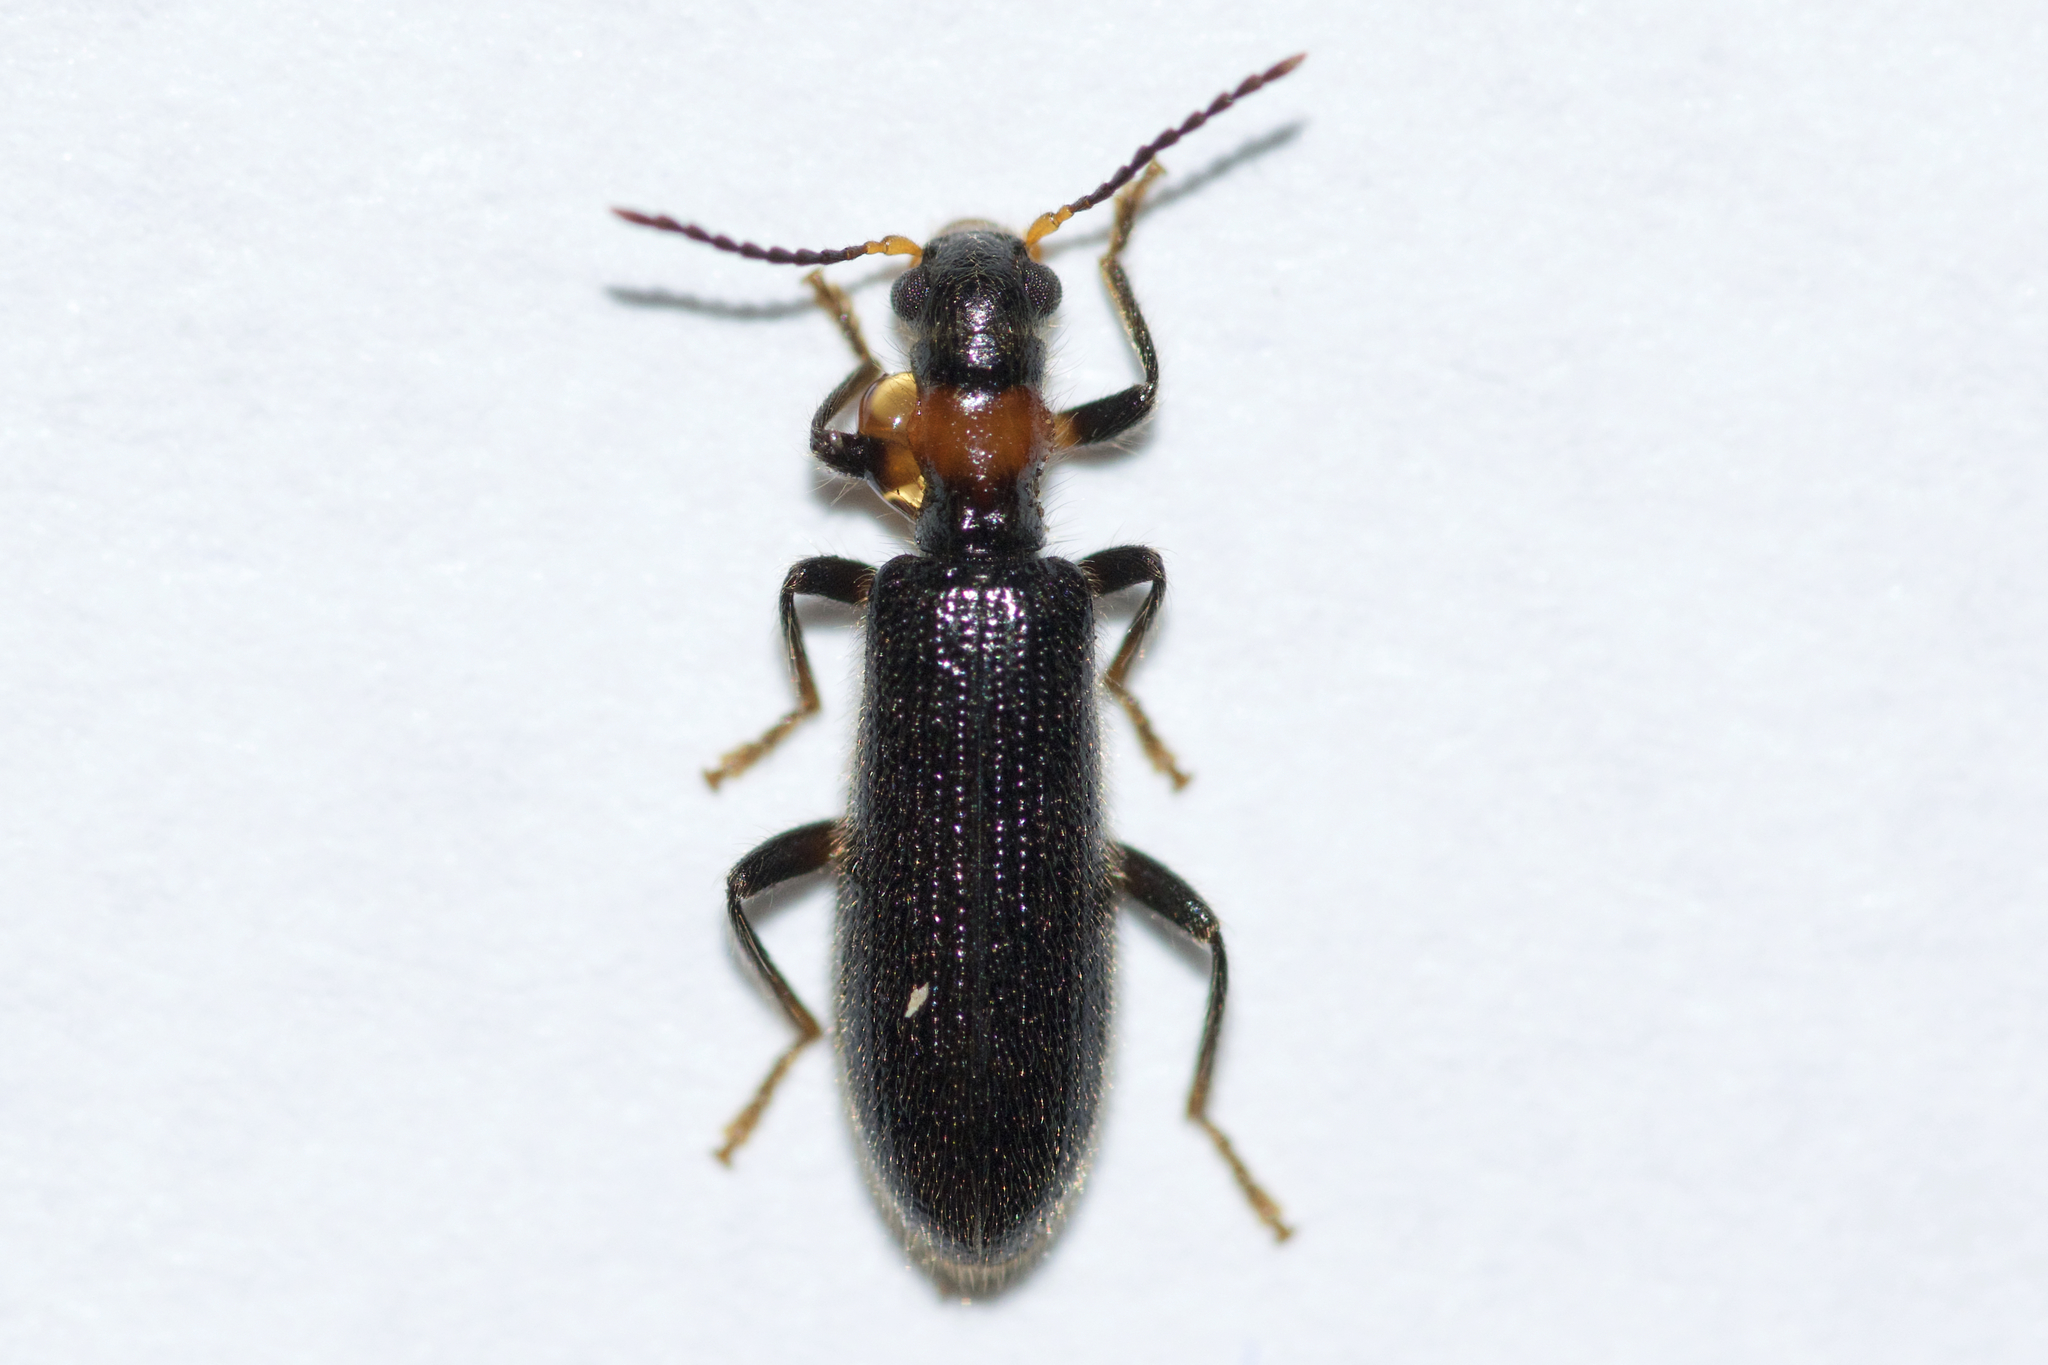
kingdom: Animalia
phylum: Arthropoda
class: Insecta
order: Coleoptera
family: Cleridae
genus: Cymatodera
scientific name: Cymatodera bicolor
